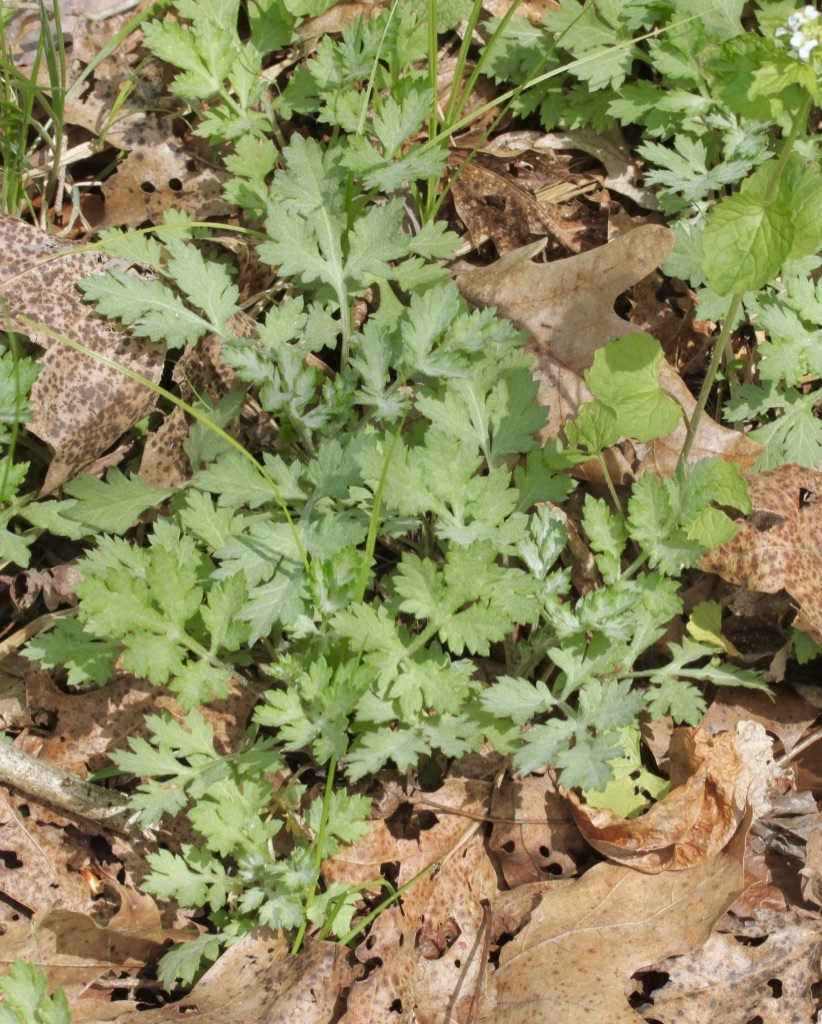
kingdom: Plantae
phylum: Tracheophyta
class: Magnoliopsida
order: Asterales
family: Asteraceae
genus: Artemisia
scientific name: Artemisia vulgaris
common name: Mugwort
